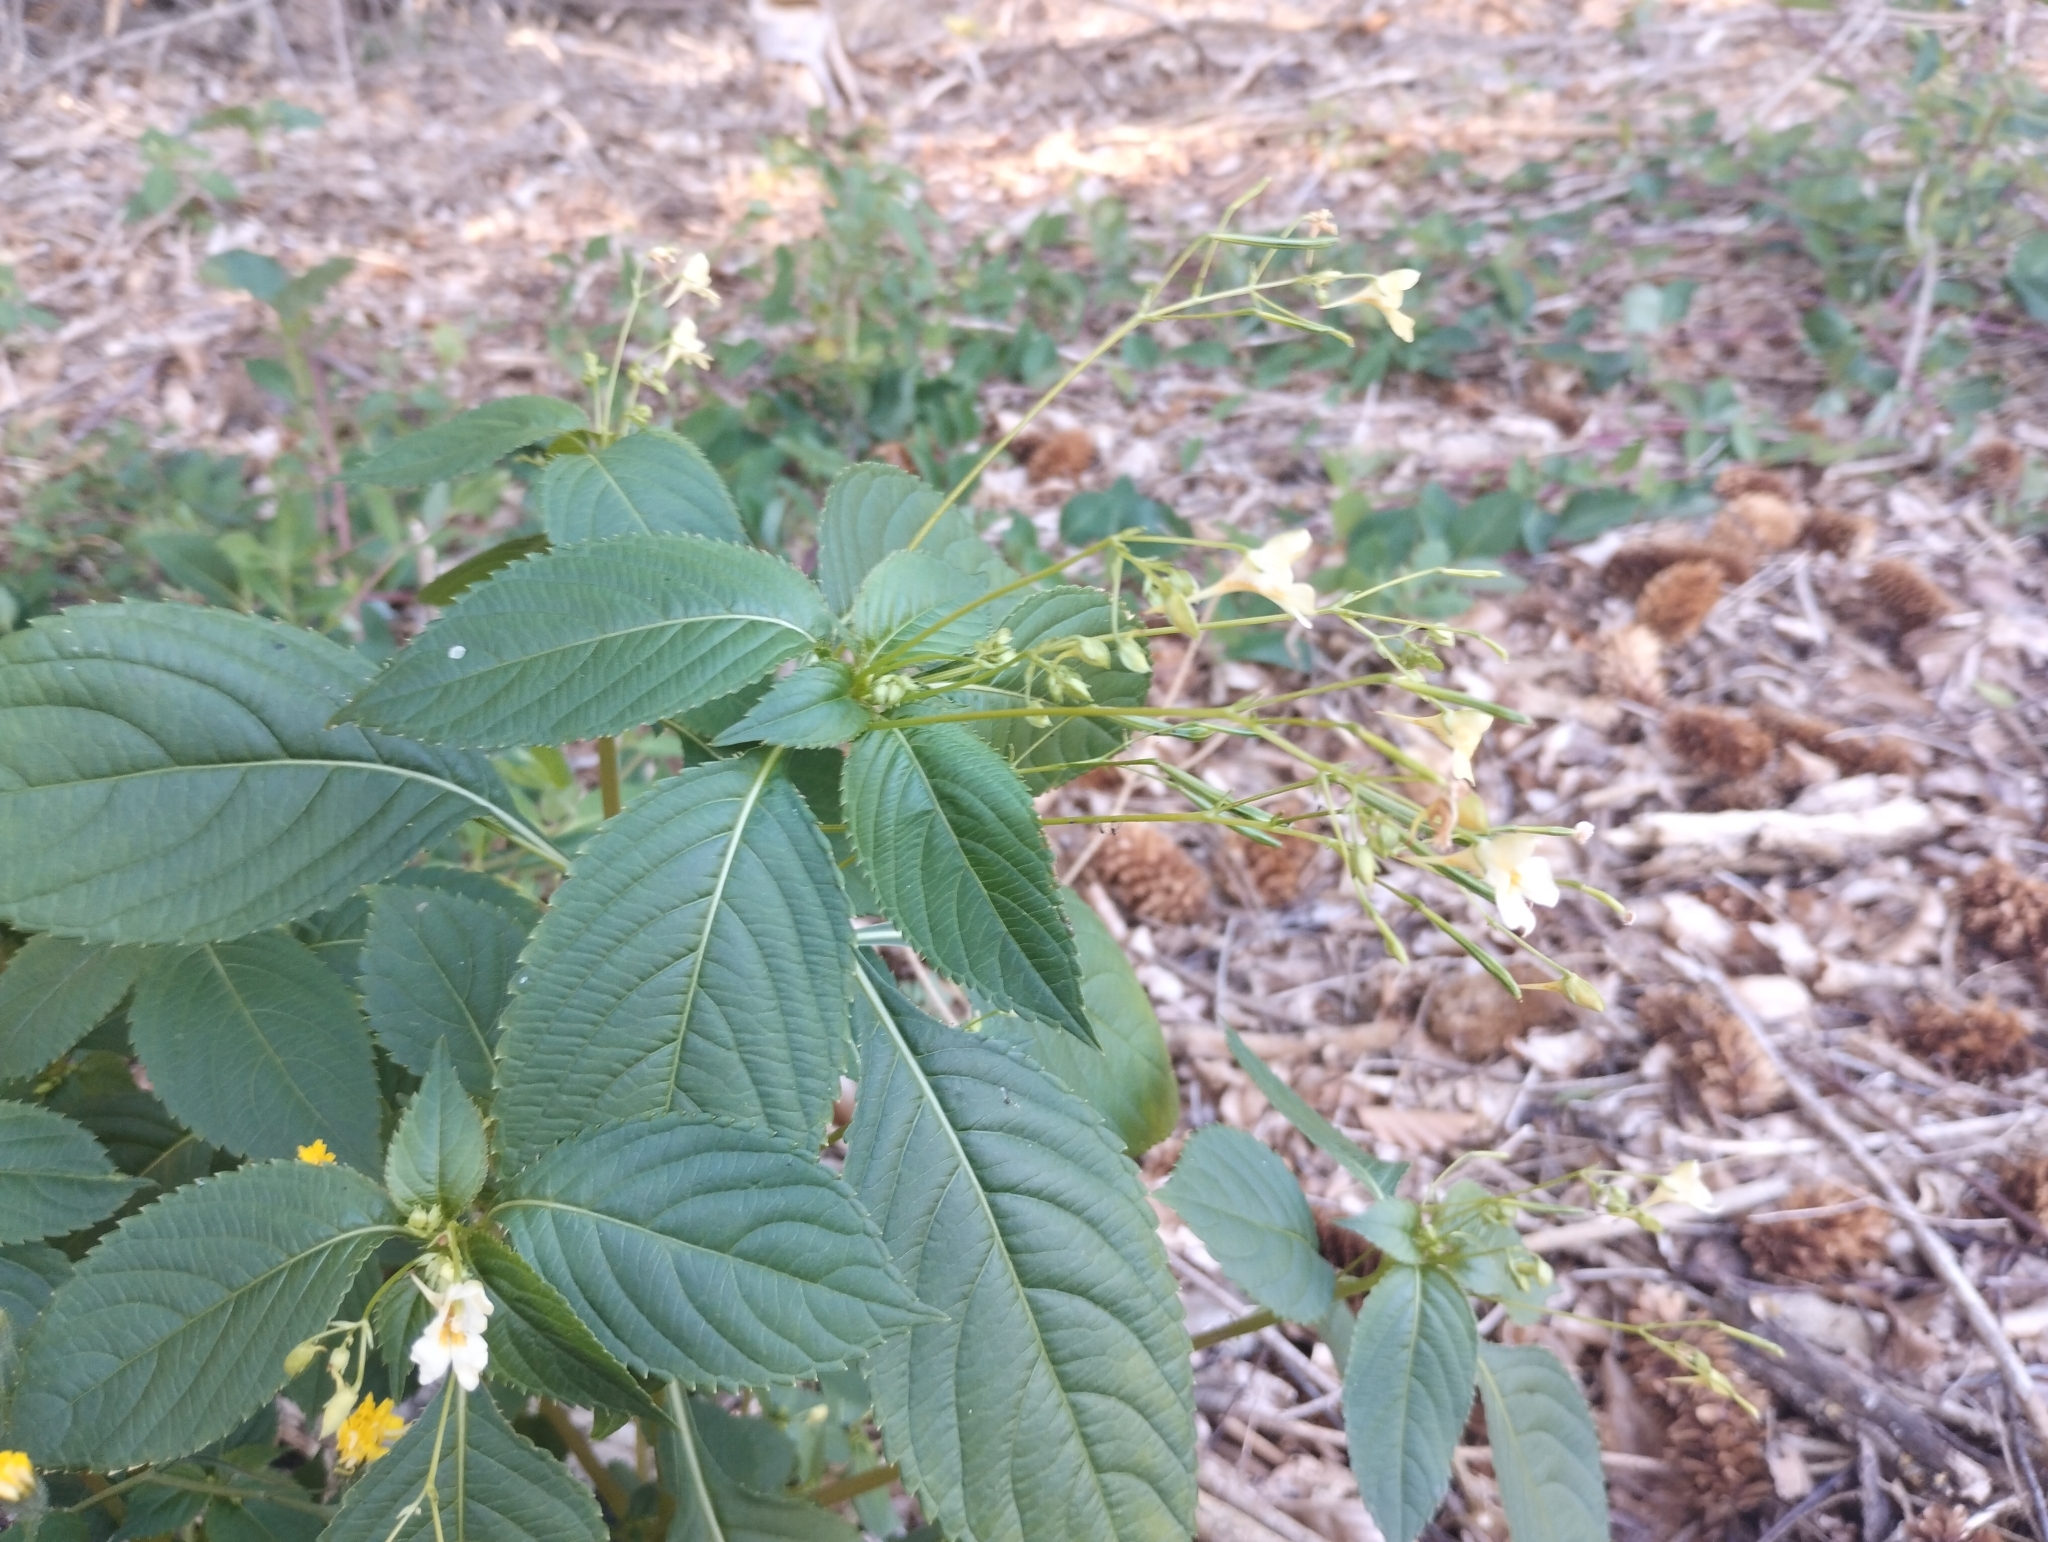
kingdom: Plantae
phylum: Tracheophyta
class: Magnoliopsida
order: Ericales
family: Balsaminaceae
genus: Impatiens
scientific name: Impatiens parviflora
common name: Small balsam
